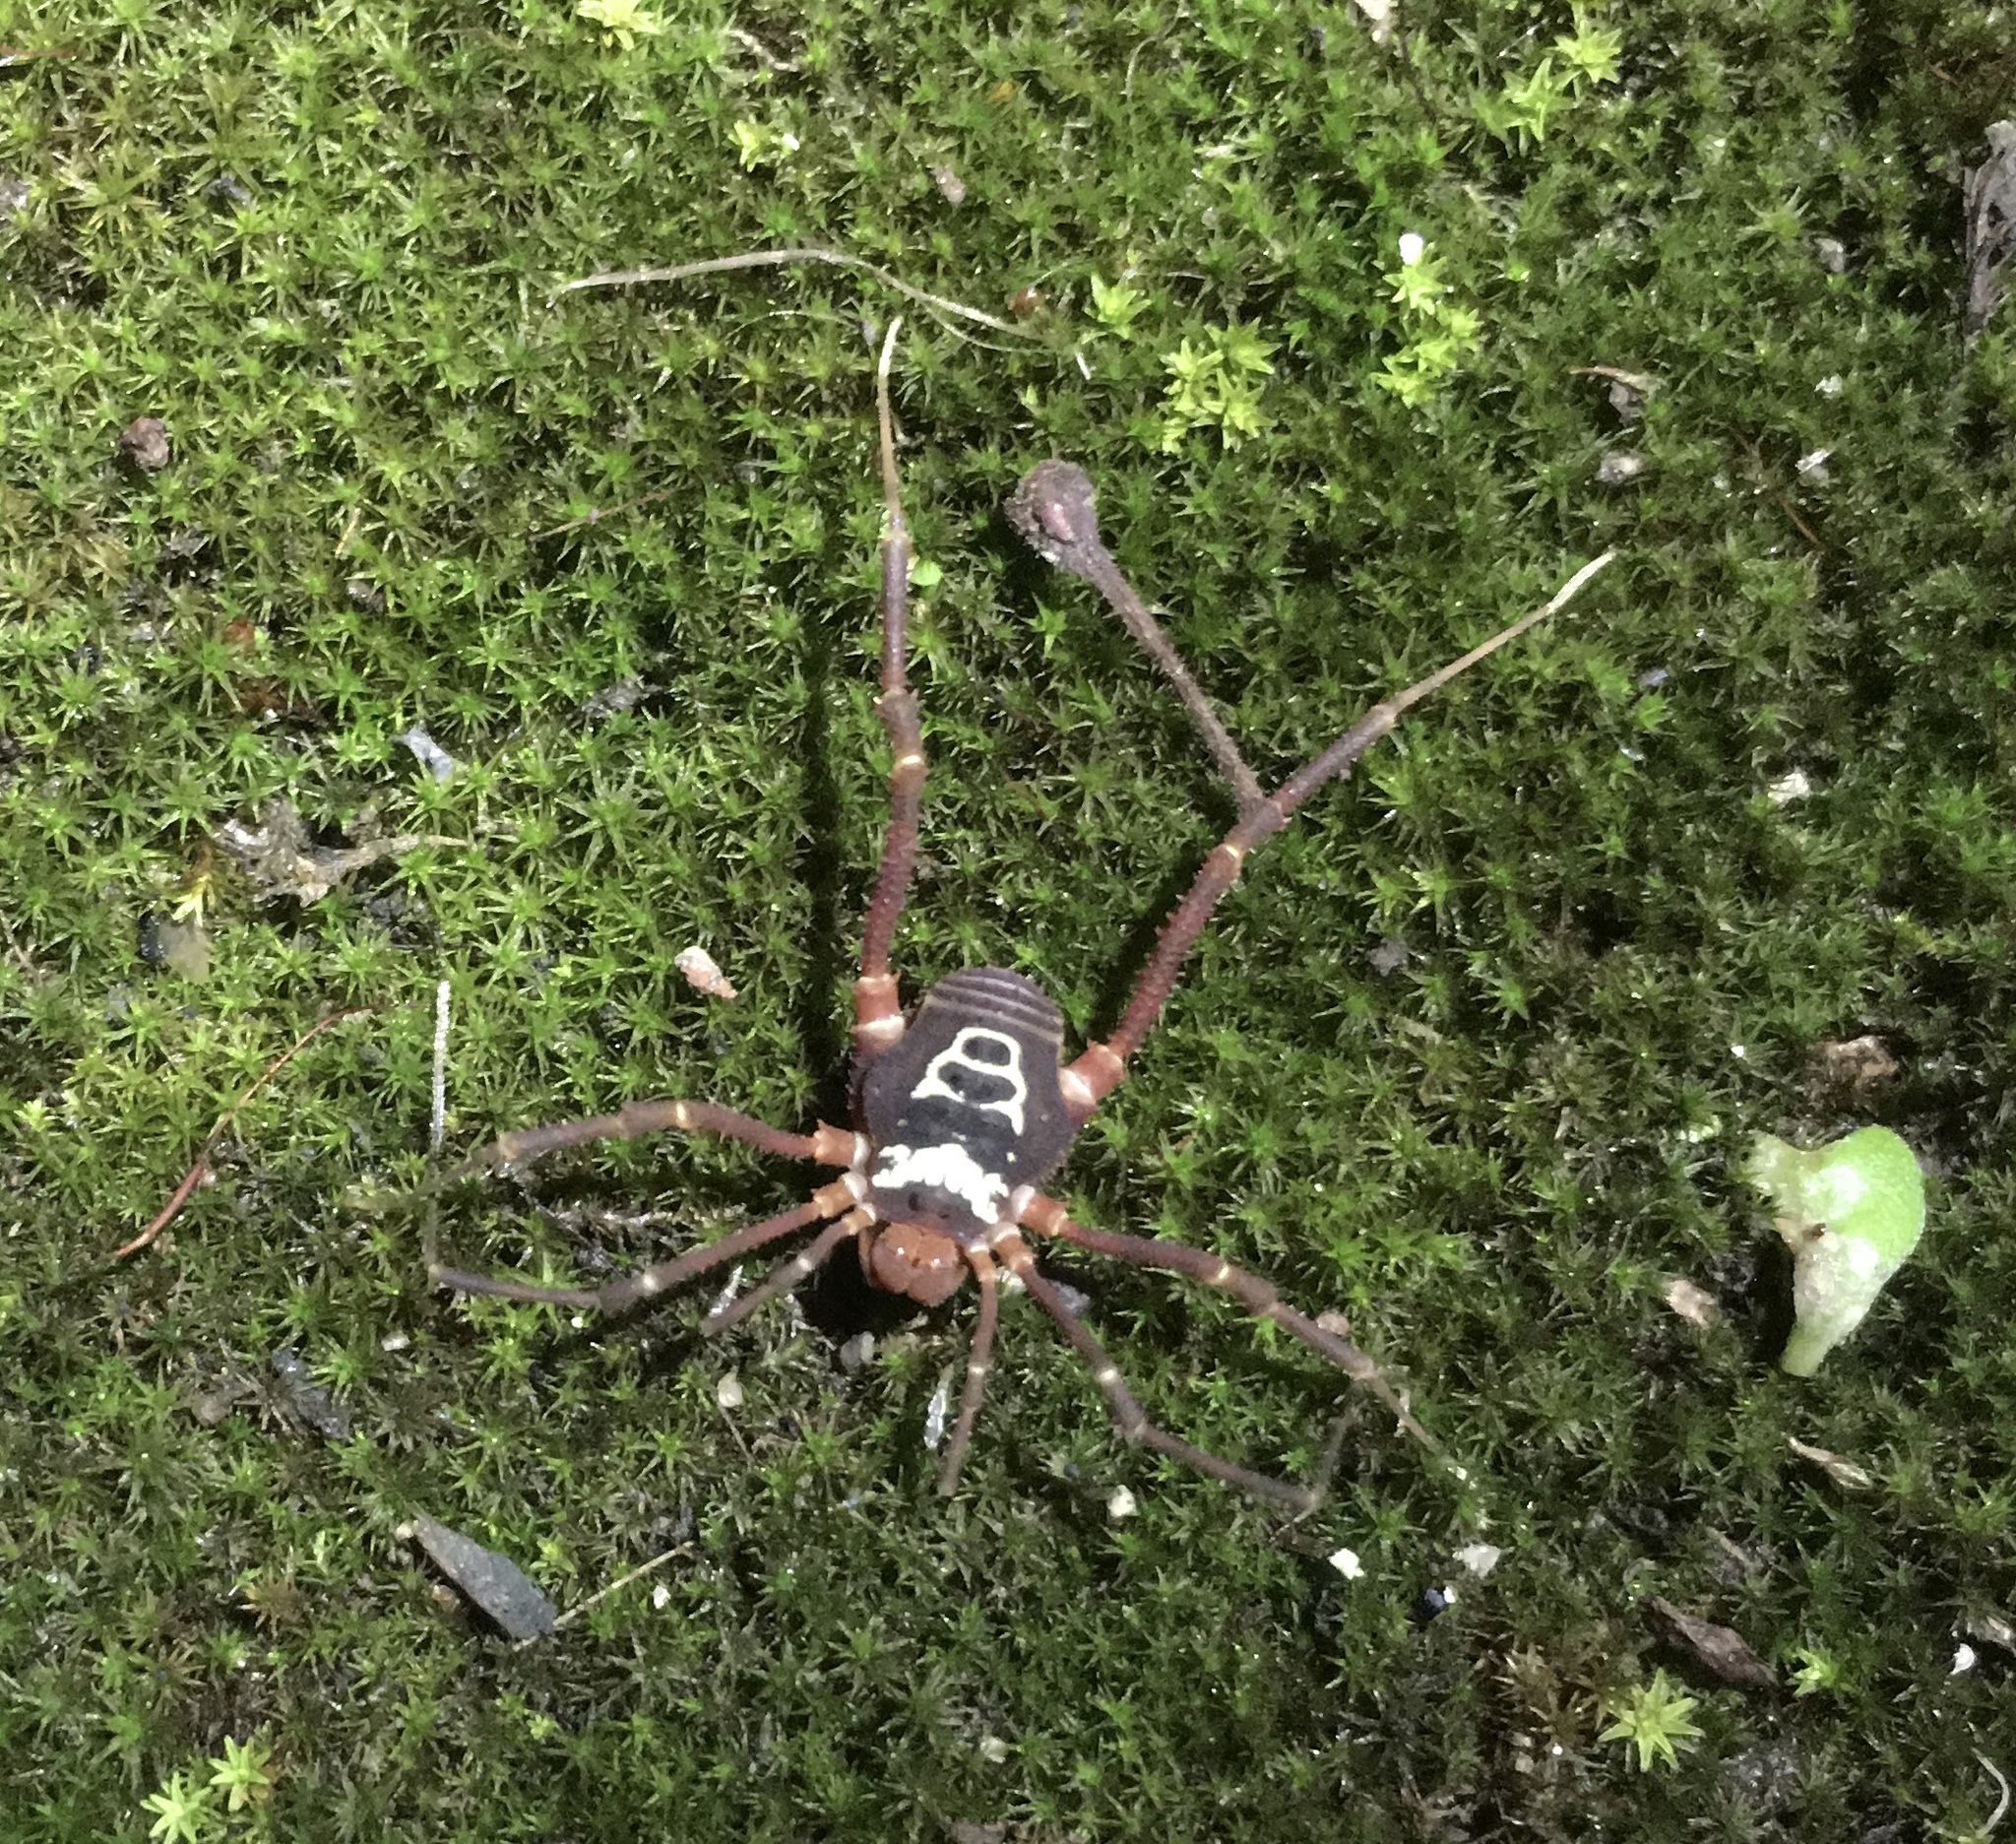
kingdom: Animalia
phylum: Arthropoda
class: Arachnida
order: Opiliones
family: Cosmetidae
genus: Rhauculus
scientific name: Rhauculus insignitus
